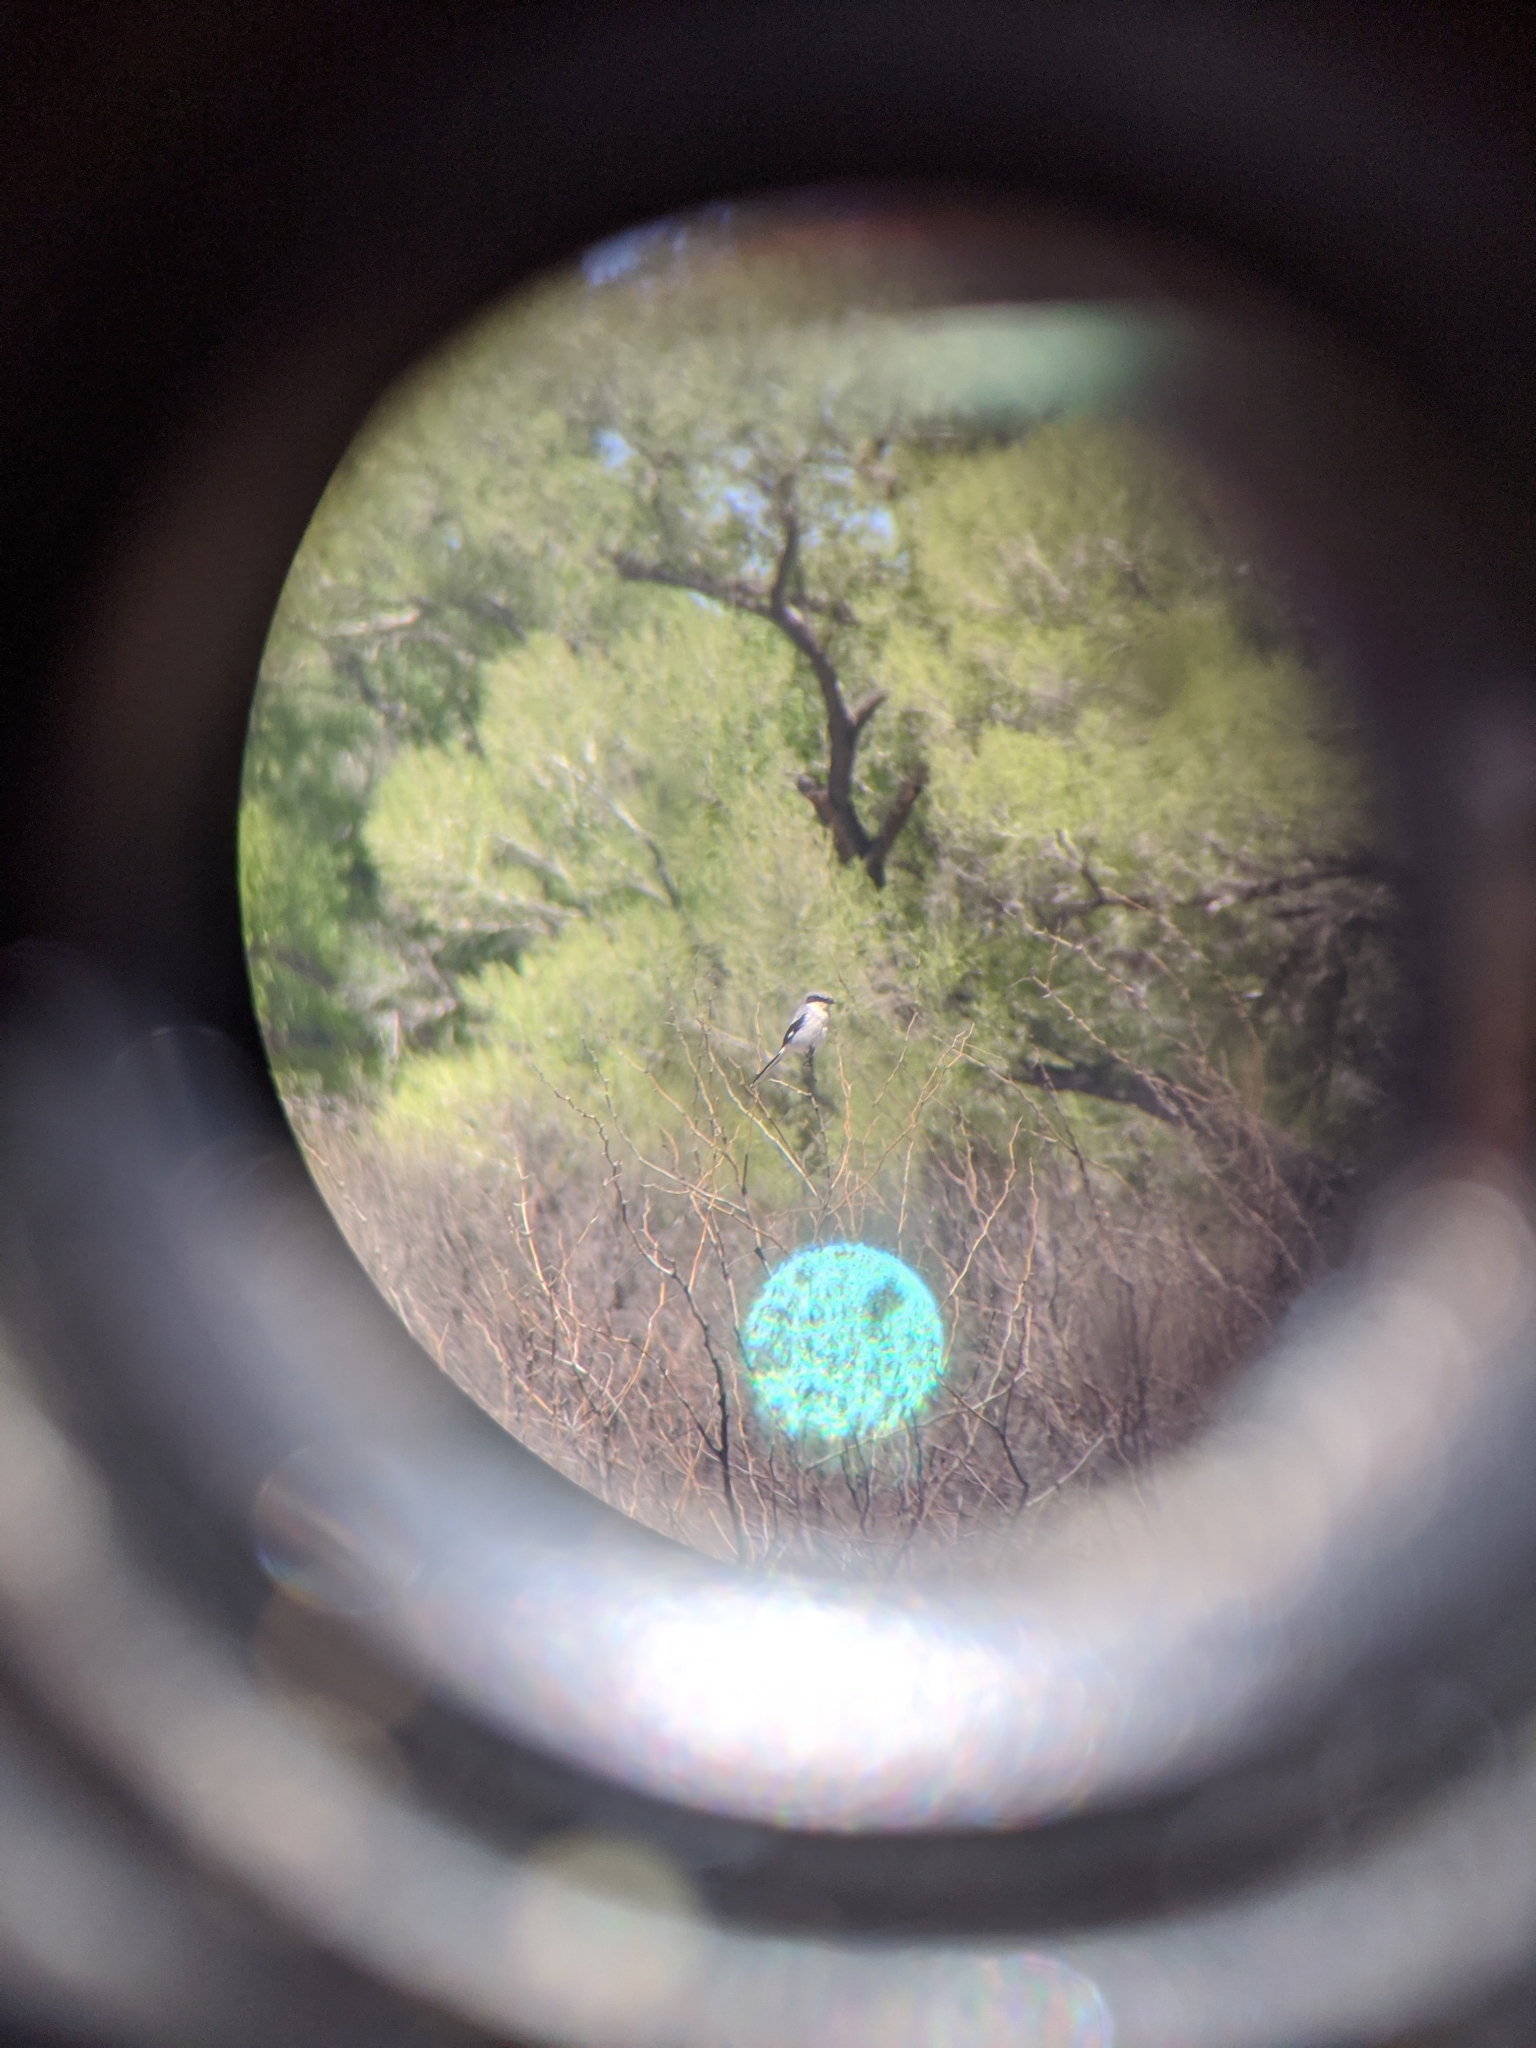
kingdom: Animalia
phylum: Chordata
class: Aves
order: Passeriformes
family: Laniidae
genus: Lanius
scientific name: Lanius ludovicianus
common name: Loggerhead shrike
